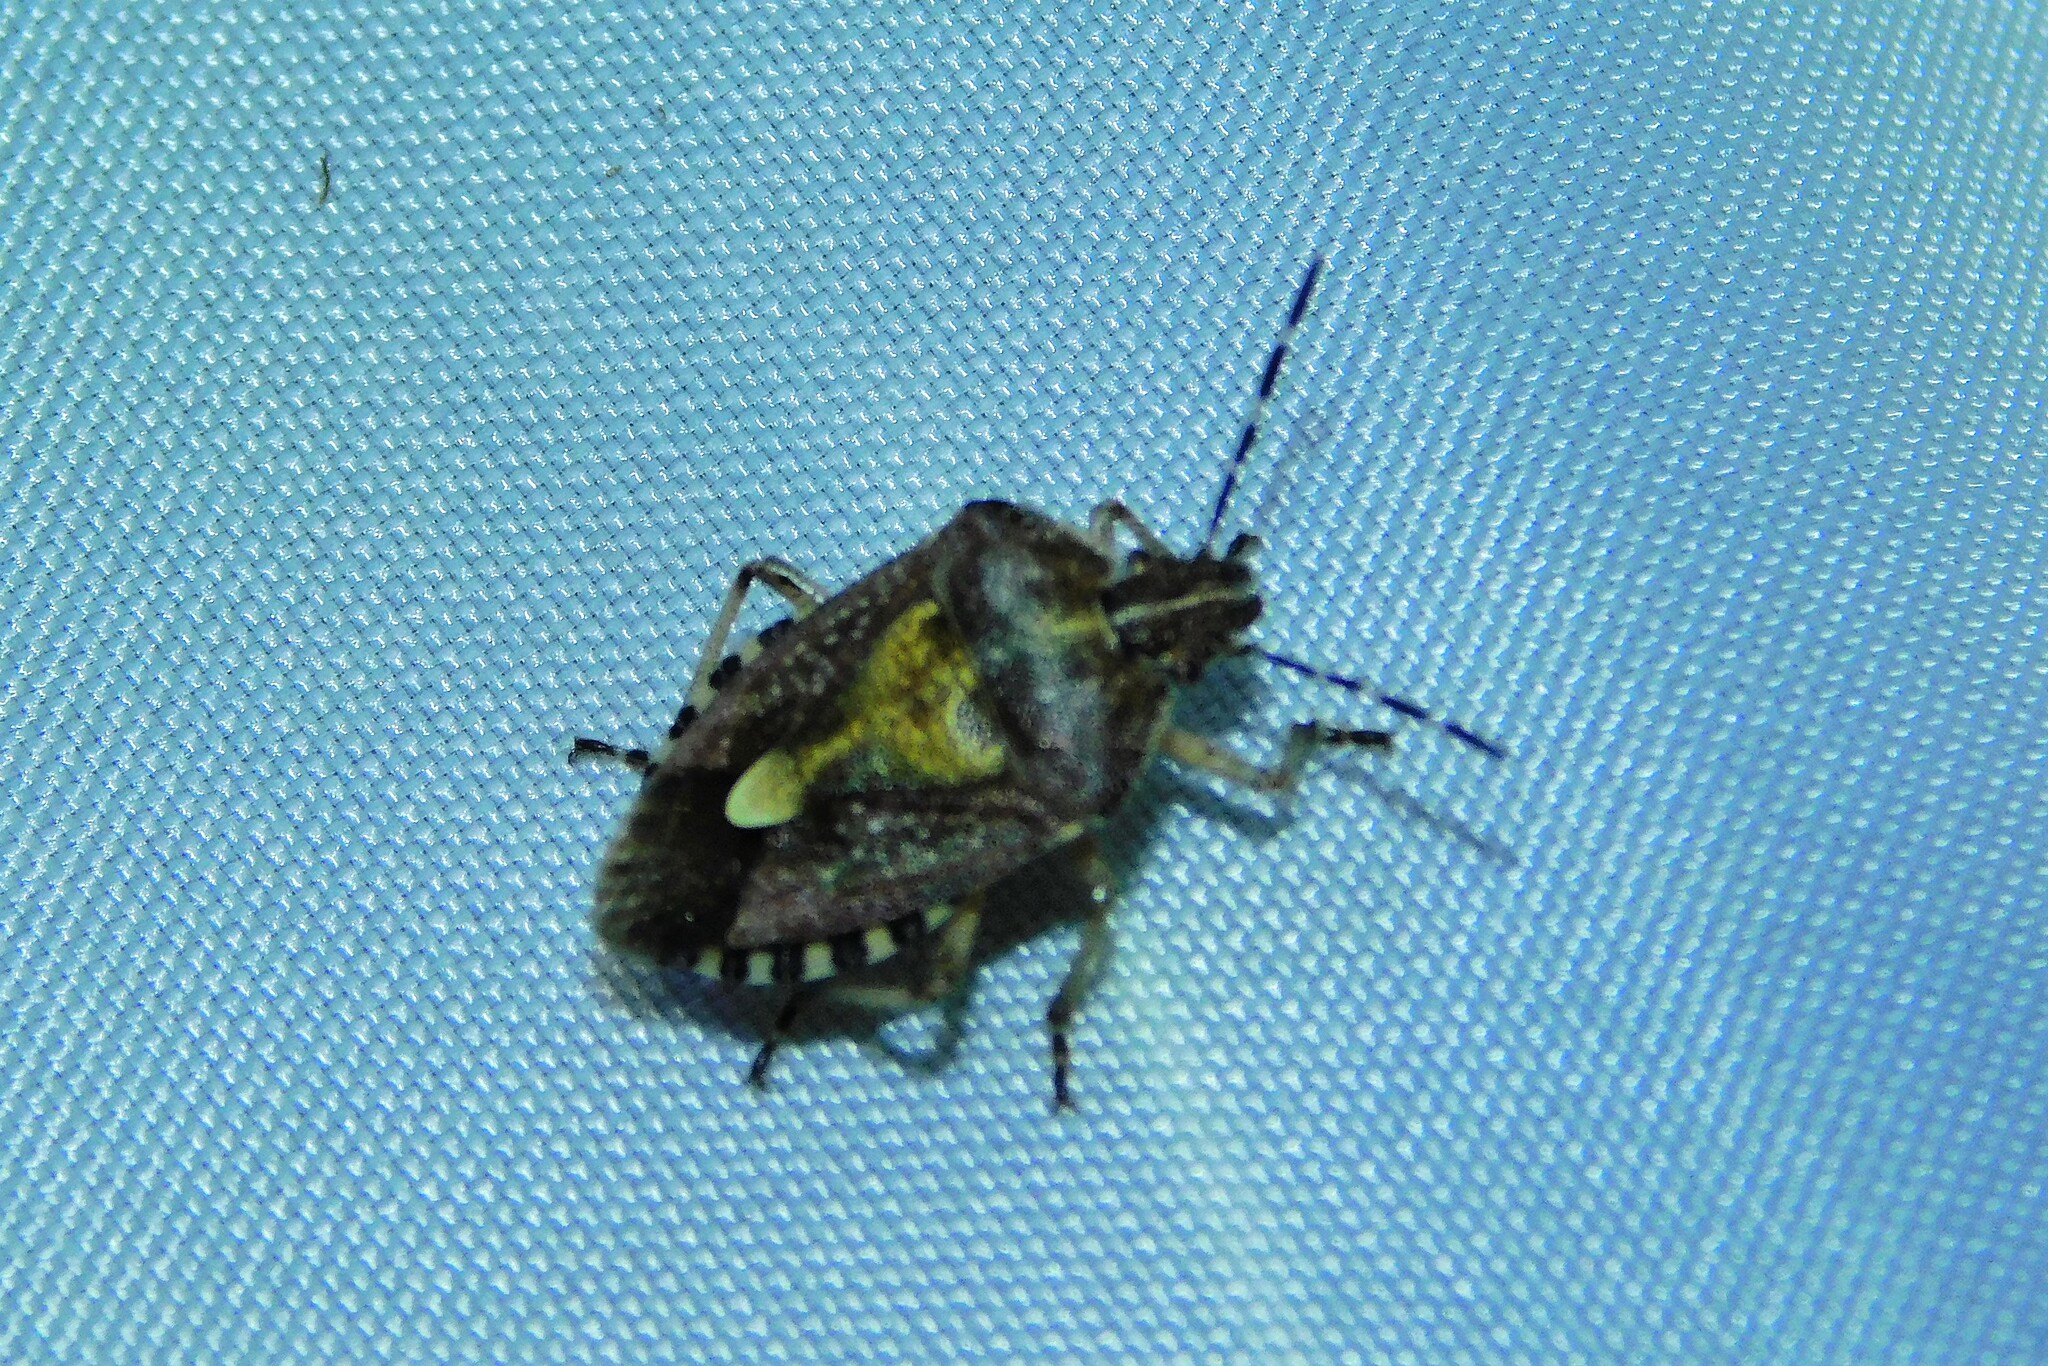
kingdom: Animalia
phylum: Arthropoda
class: Insecta
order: Hemiptera
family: Pentatomidae
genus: Dolycoris
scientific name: Dolycoris baccarum
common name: Sloe bug
